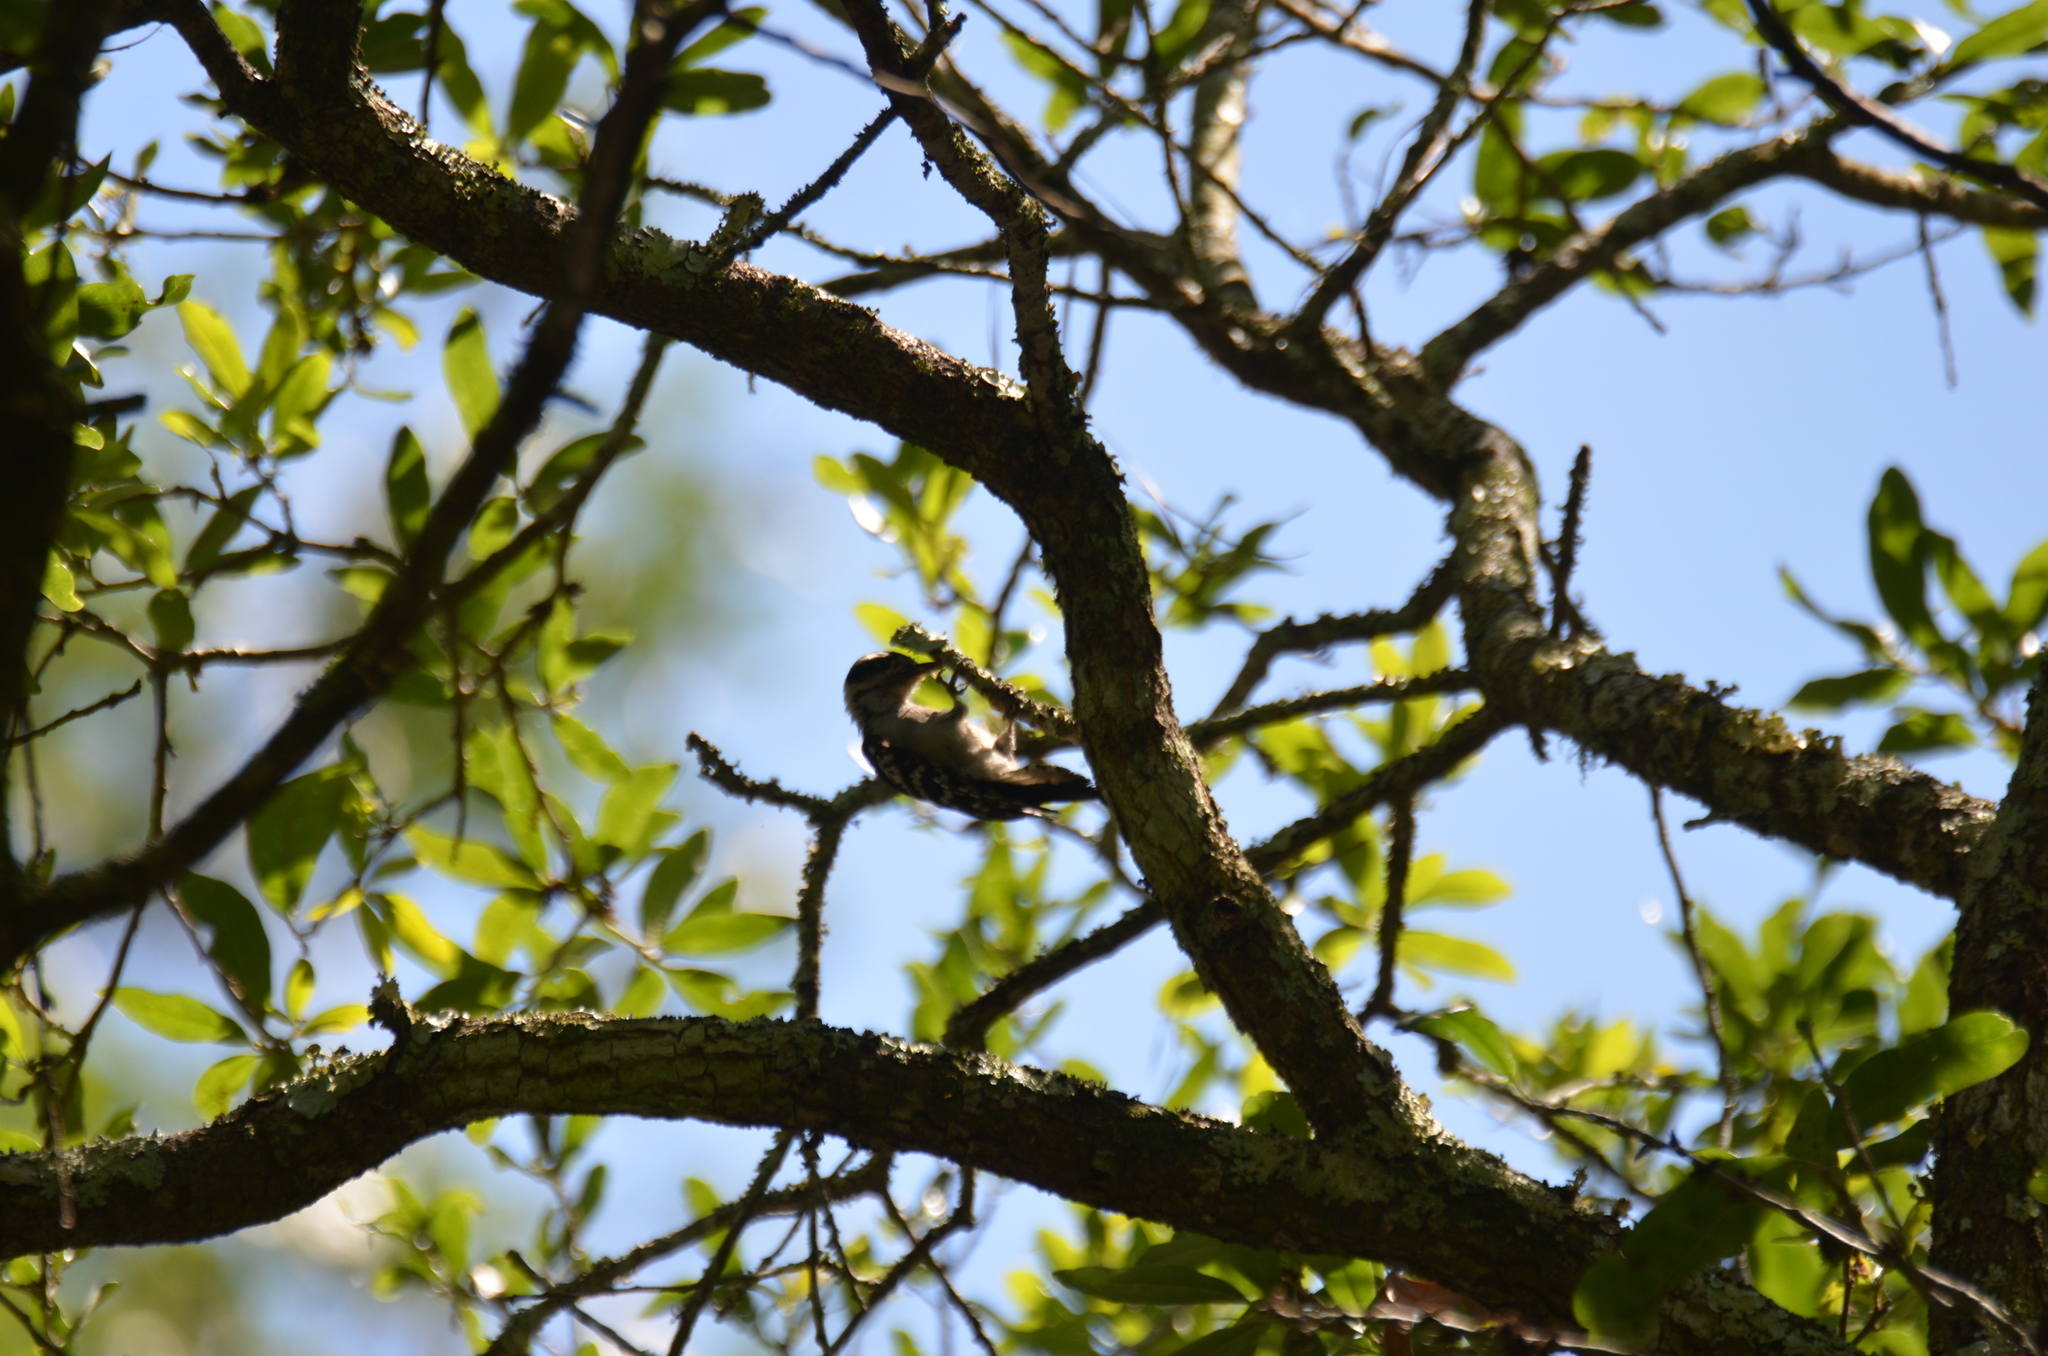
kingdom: Animalia
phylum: Chordata
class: Aves
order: Piciformes
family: Picidae
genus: Dryobates
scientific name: Dryobates pubescens
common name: Downy woodpecker
